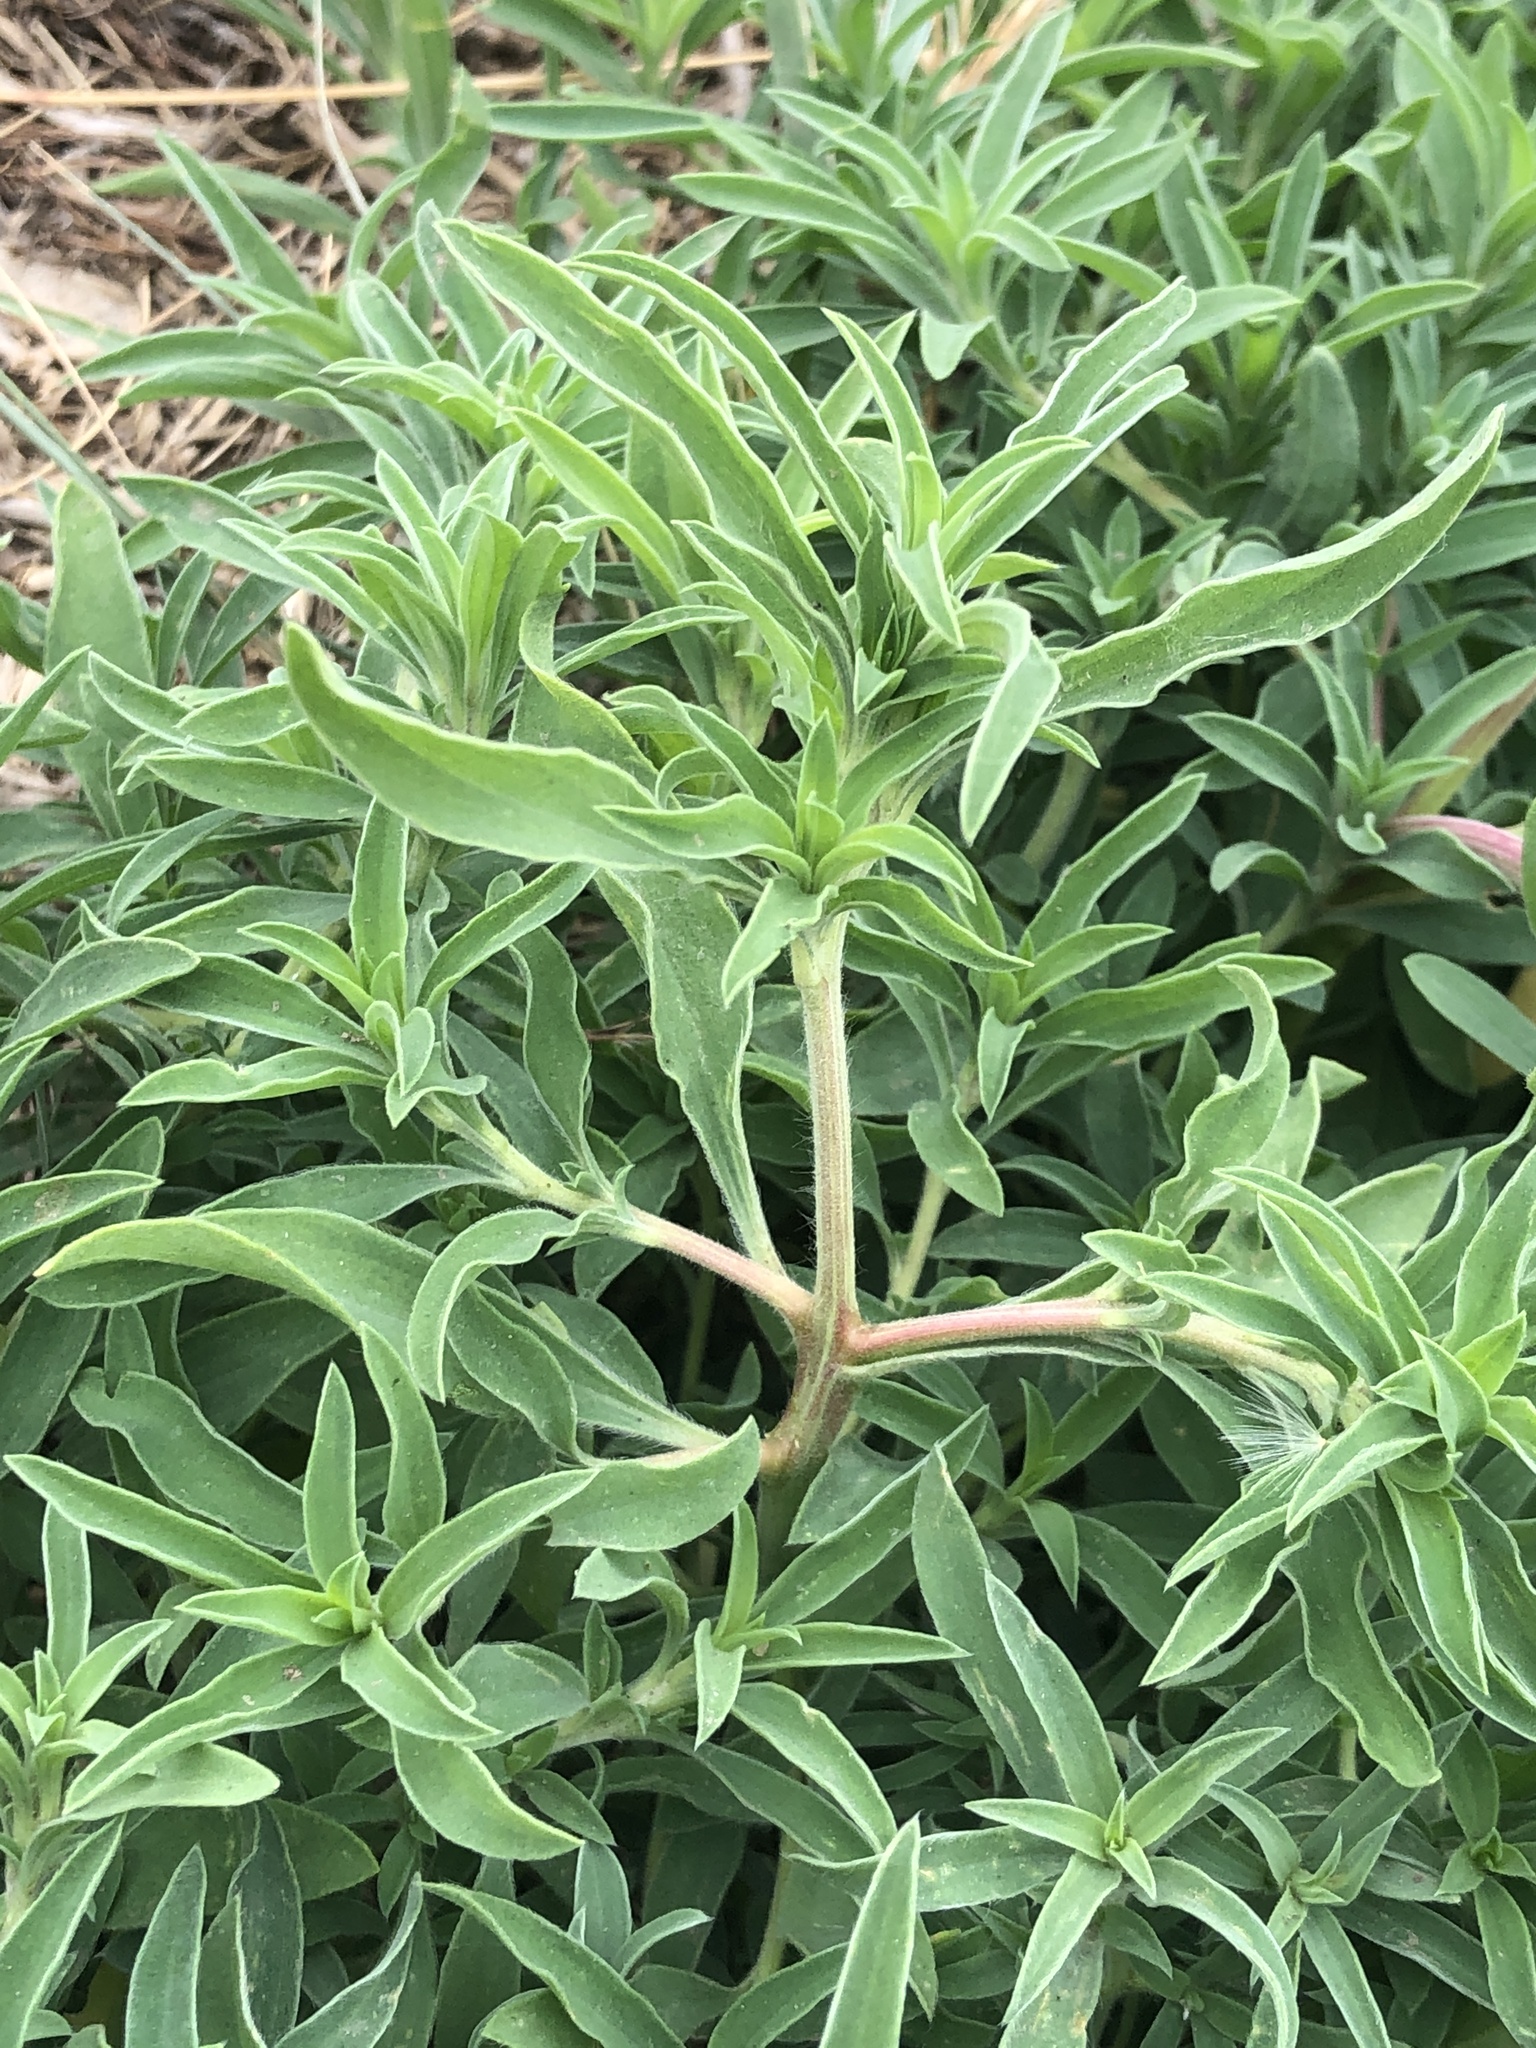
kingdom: Plantae
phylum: Tracheophyta
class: Magnoliopsida
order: Caryophyllales
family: Amaranthaceae
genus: Bassia
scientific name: Bassia scoparia
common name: Belvedere
